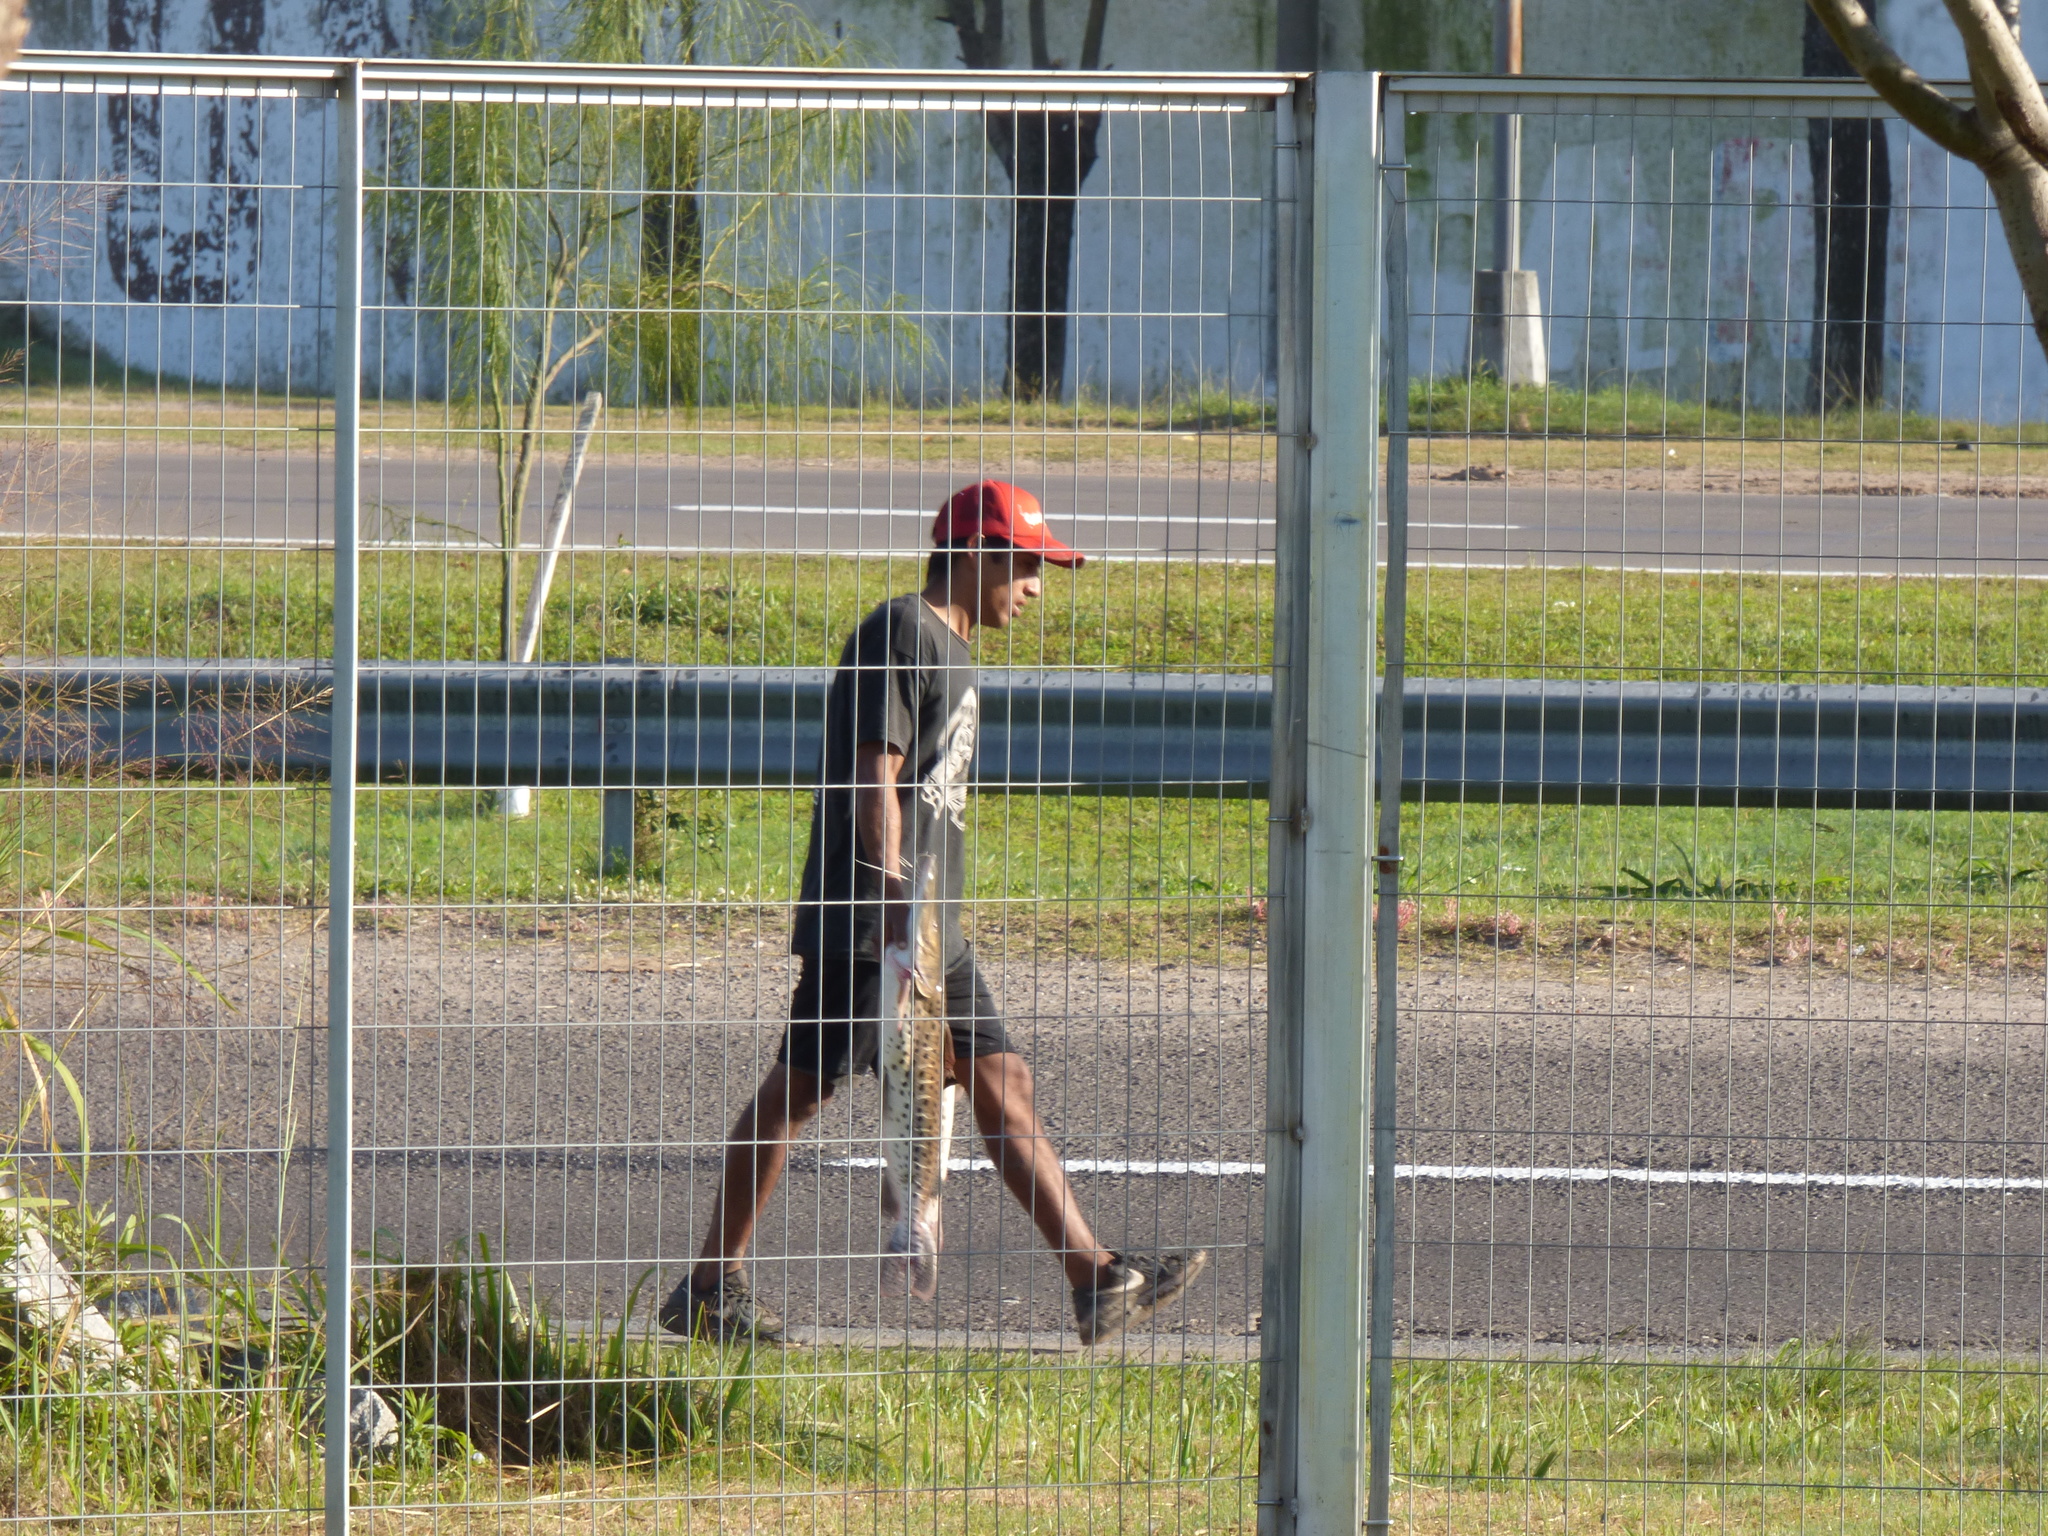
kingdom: Animalia
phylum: Chordata
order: Siluriformes
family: Pimelodidae
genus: Pseudoplatystoma
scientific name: Pseudoplatystoma corruscans
